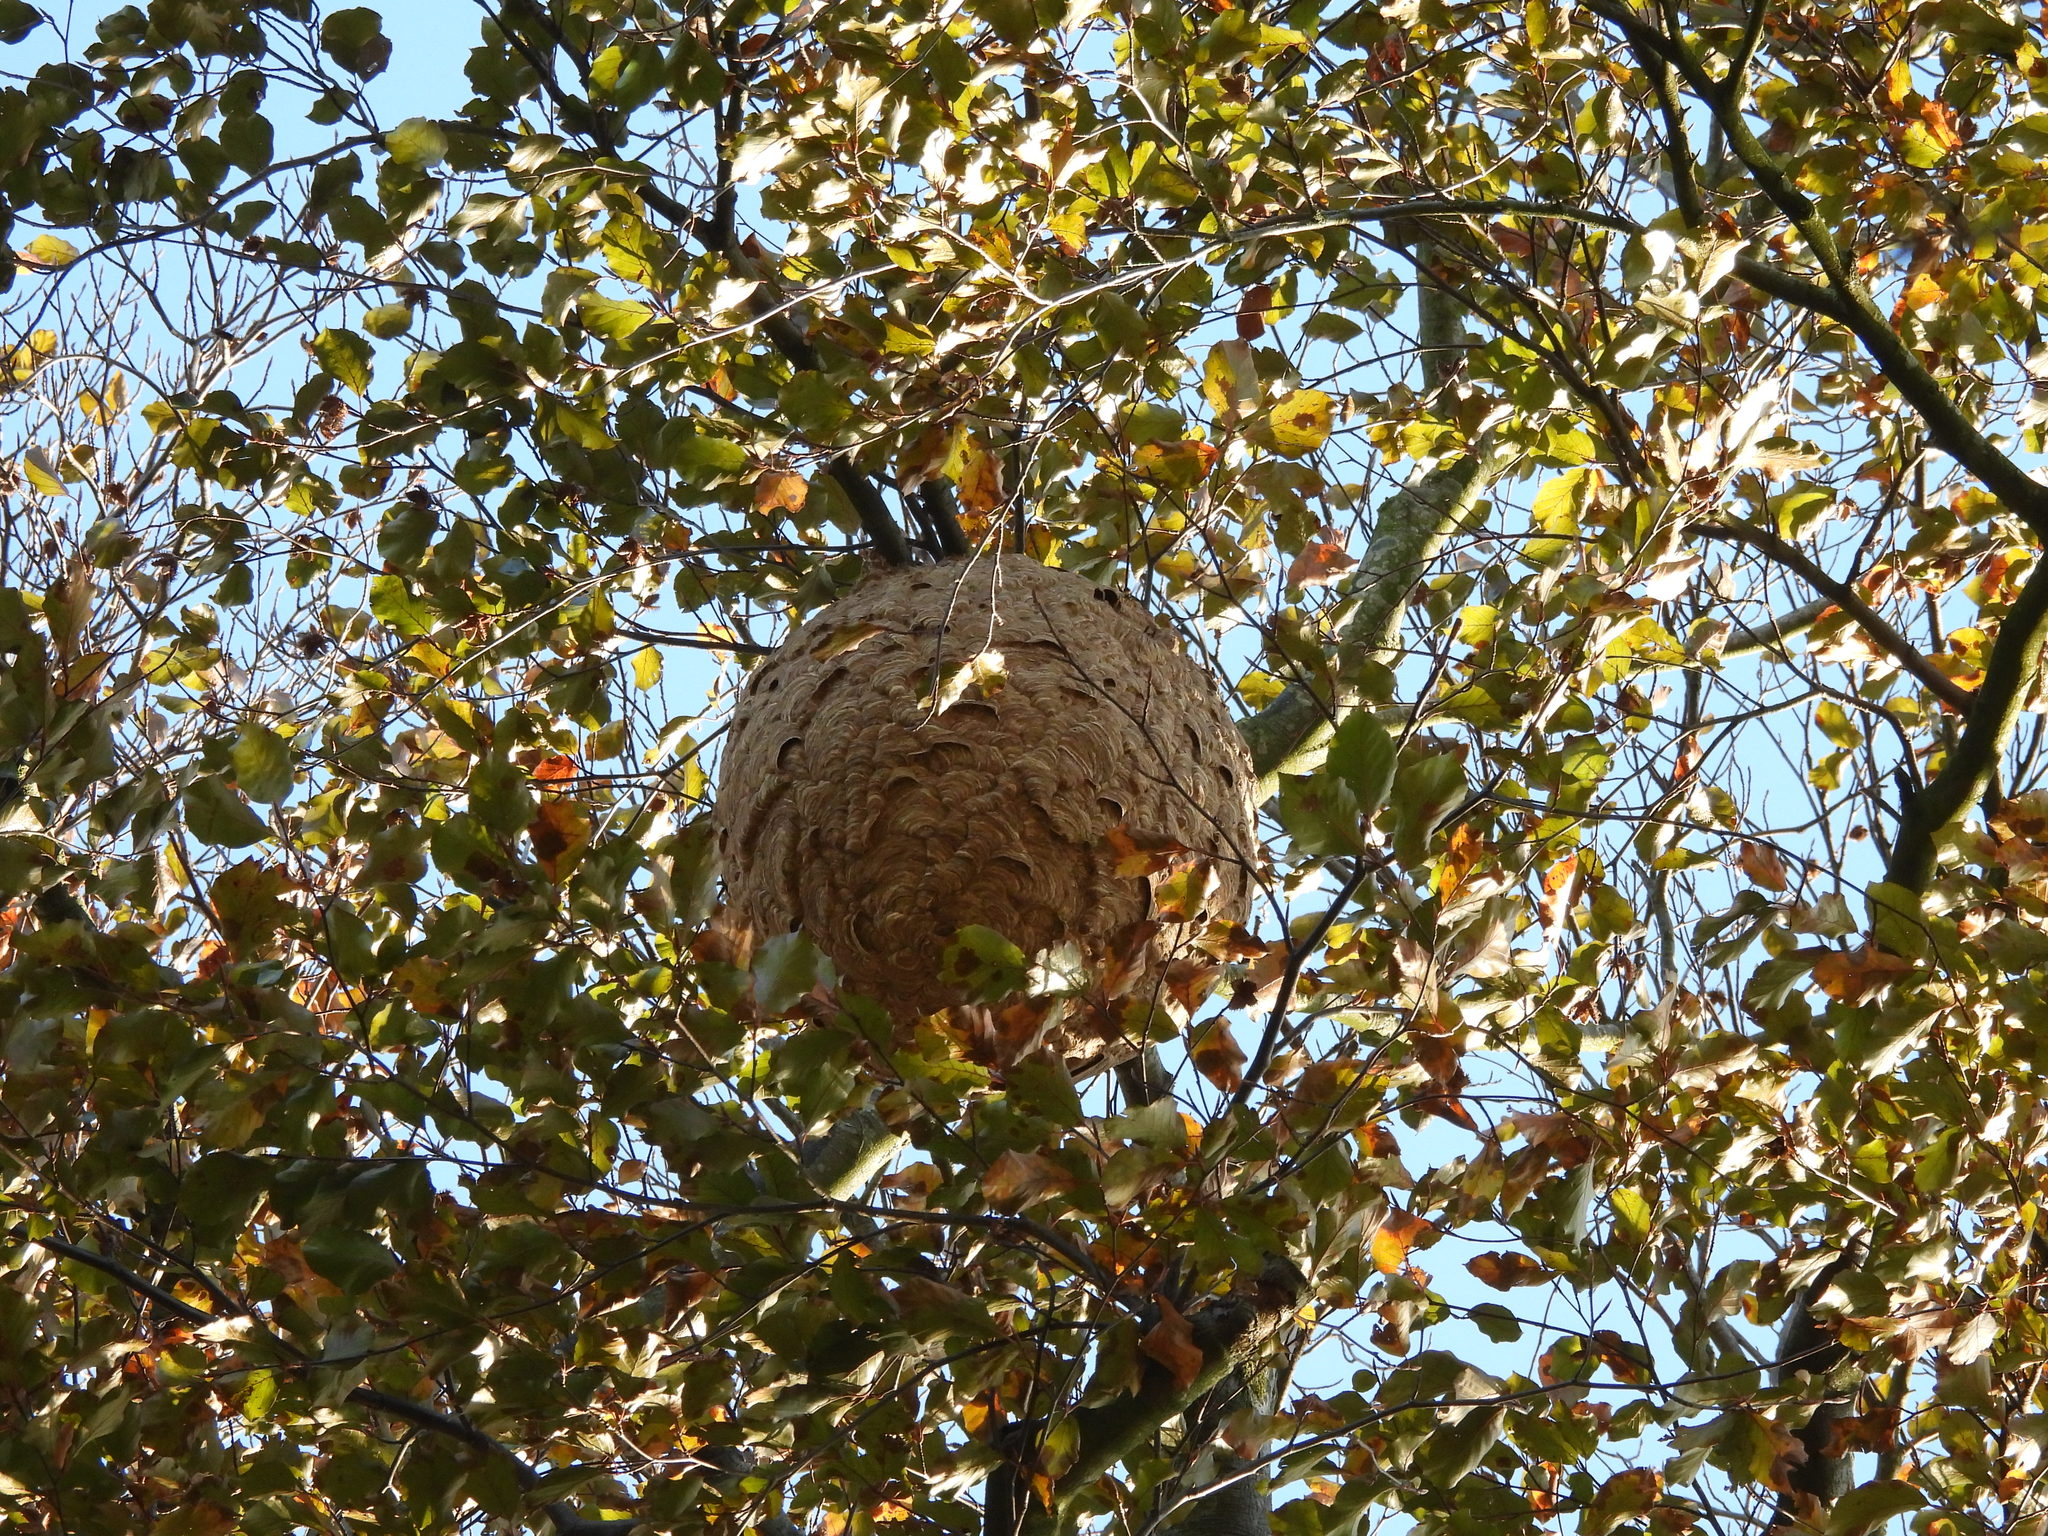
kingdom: Animalia
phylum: Arthropoda
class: Insecta
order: Hymenoptera
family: Vespidae
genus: Vespa
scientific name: Vespa velutina
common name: Asian hornet
